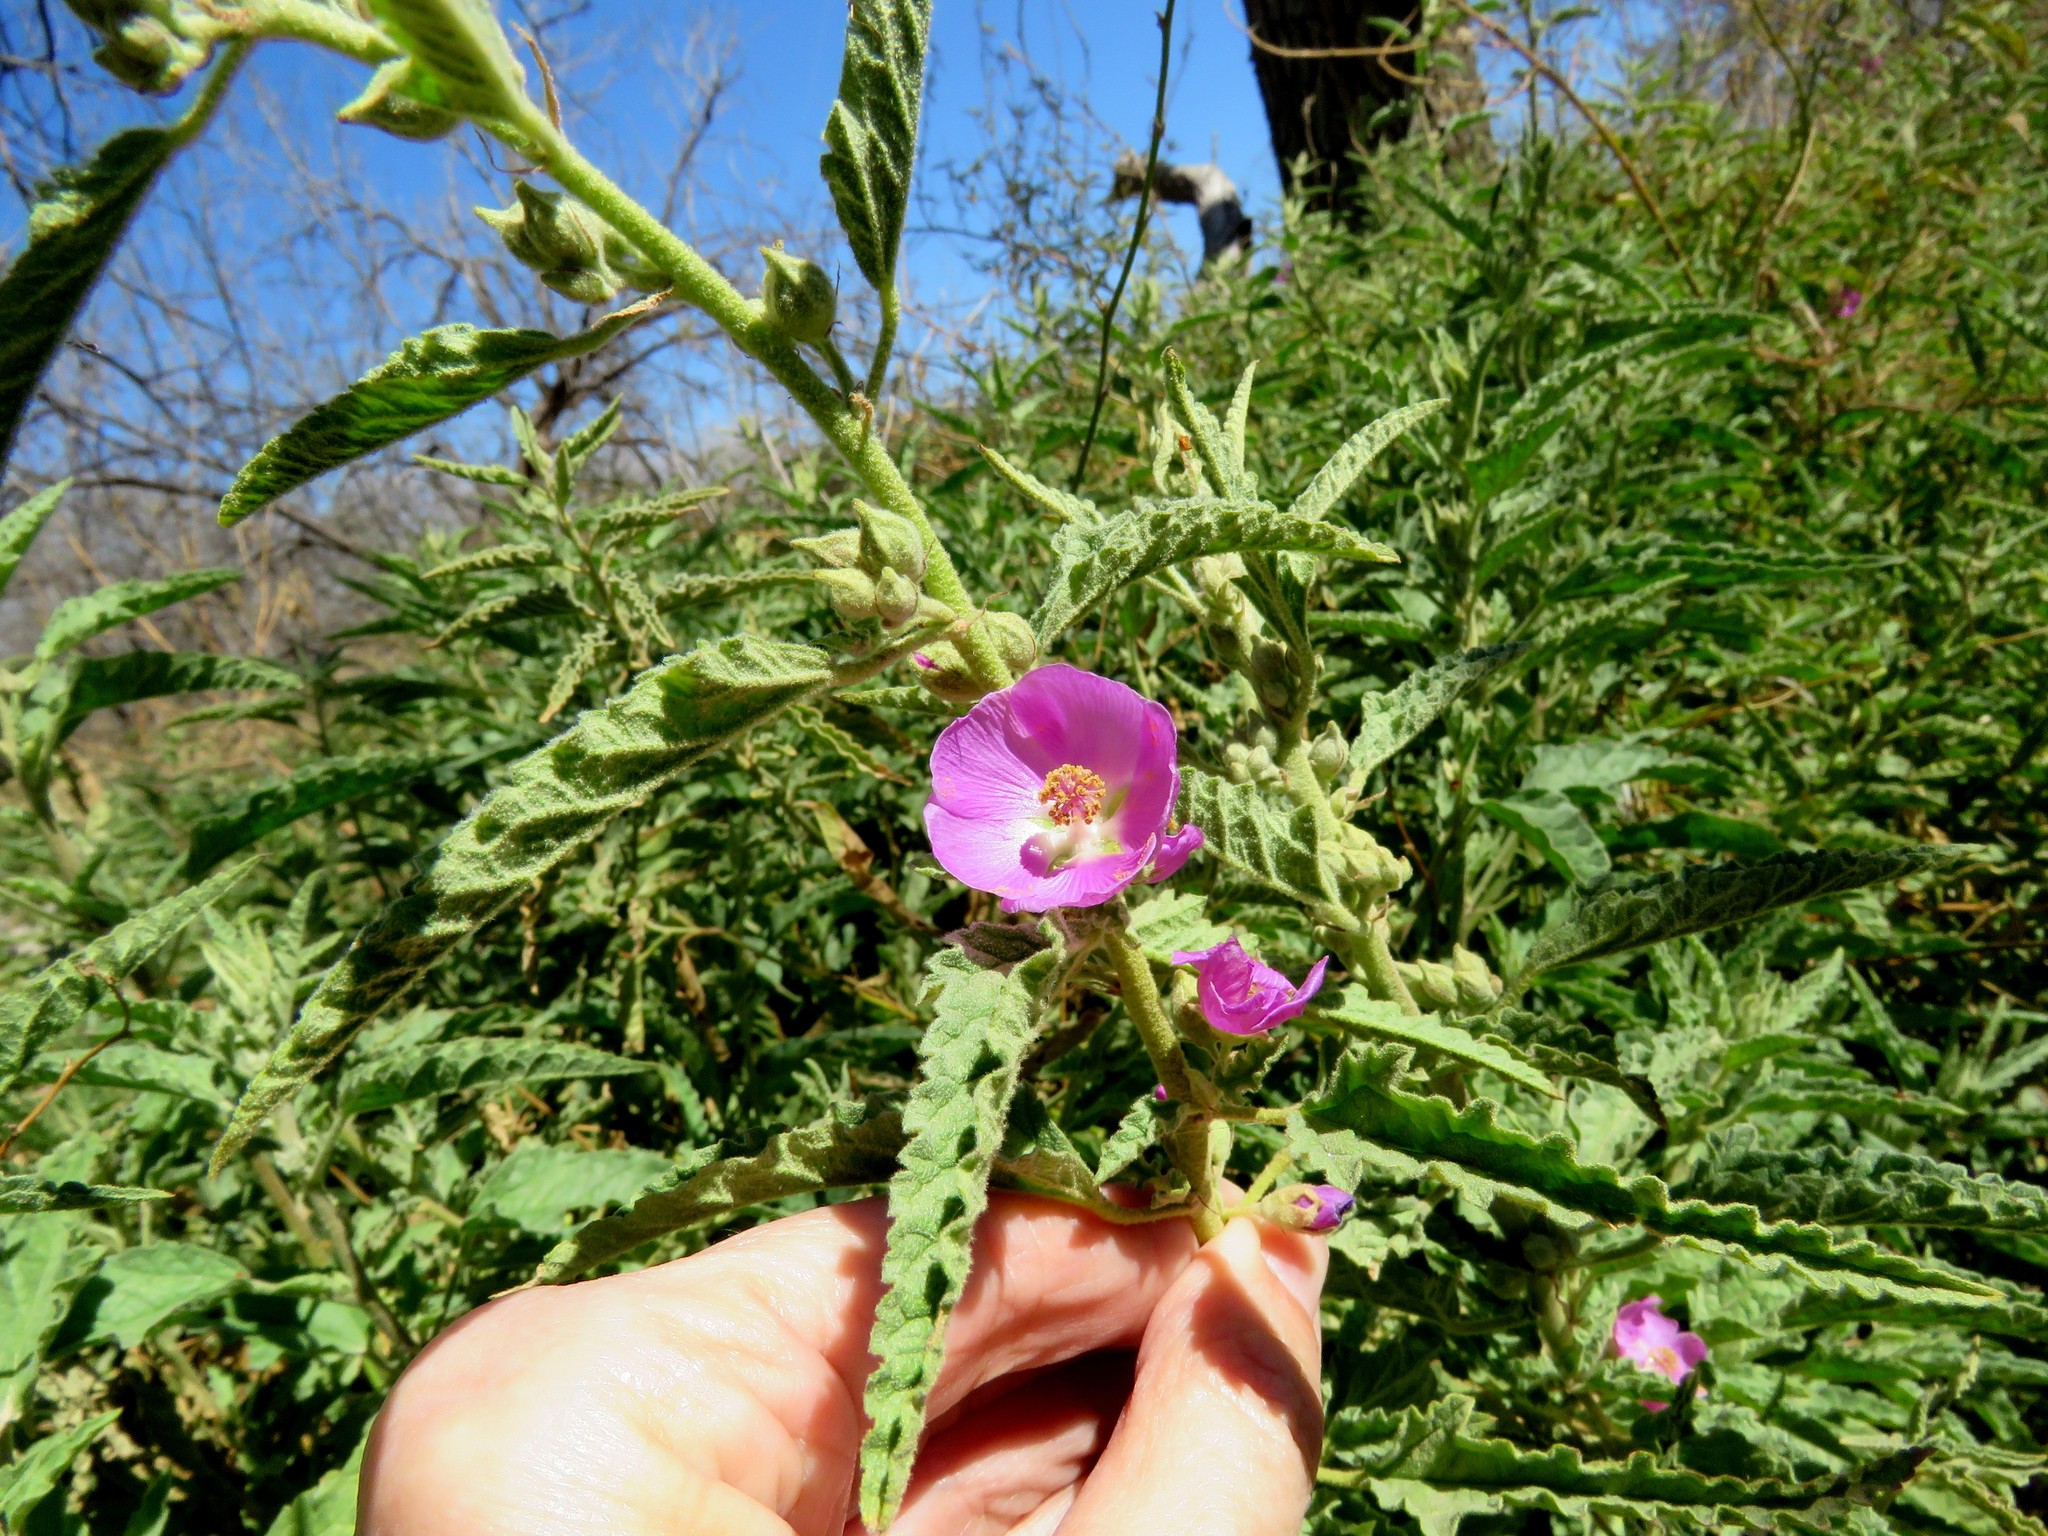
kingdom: Plantae
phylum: Tracheophyta
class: Magnoliopsida
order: Malvales
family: Malvaceae
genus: Sphaeralcea
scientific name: Sphaeralcea angustifolia
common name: Copper globe-mallow
